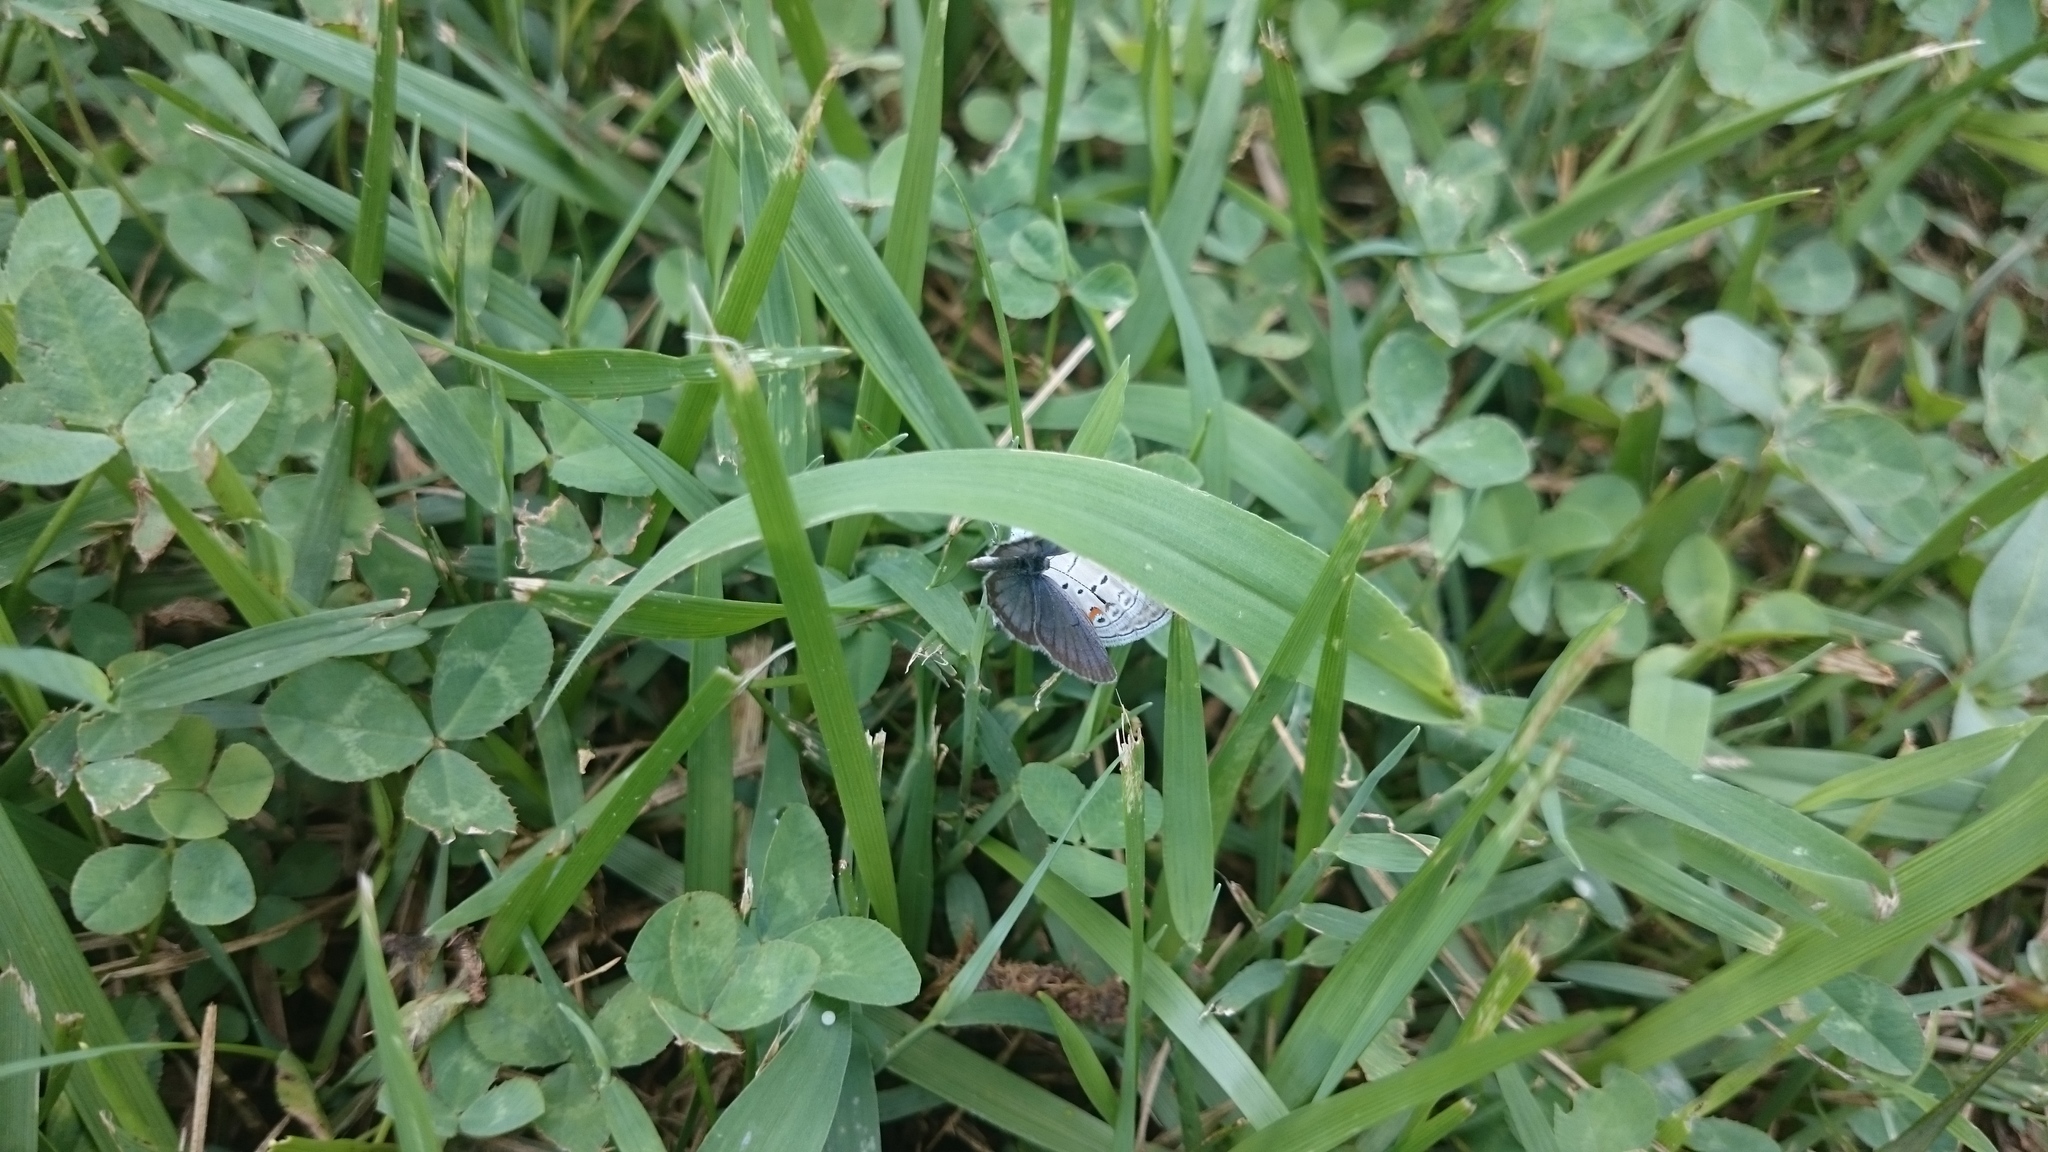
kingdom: Animalia
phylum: Arthropoda
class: Insecta
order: Lepidoptera
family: Lycaenidae
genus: Elkalyce
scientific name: Elkalyce comyntas
